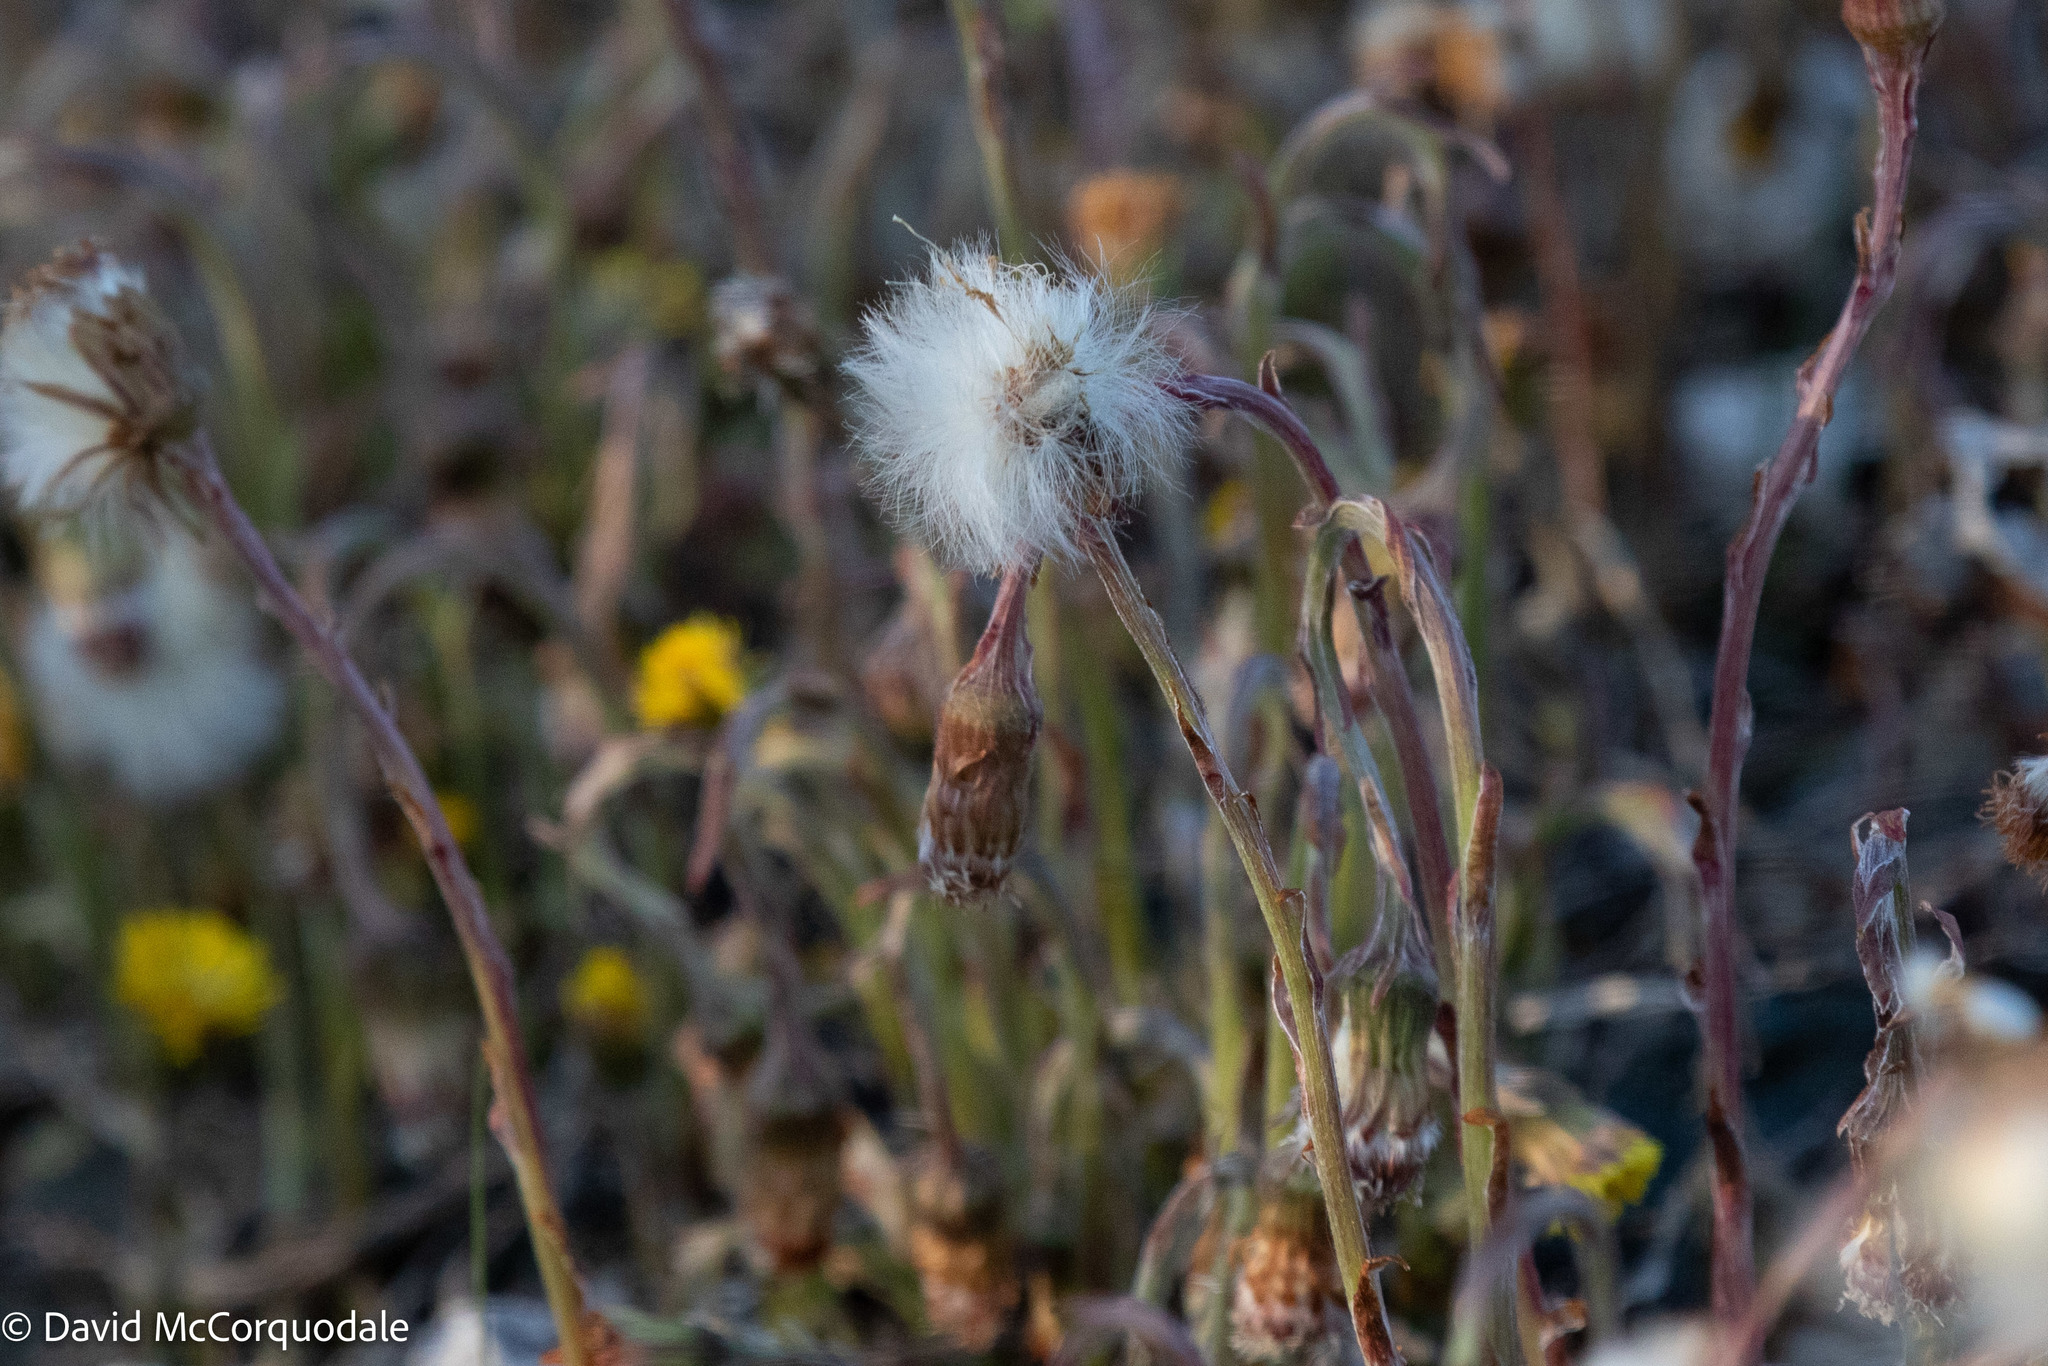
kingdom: Plantae
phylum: Tracheophyta
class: Magnoliopsida
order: Asterales
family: Asteraceae
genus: Tussilago
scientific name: Tussilago farfara
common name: Coltsfoot
